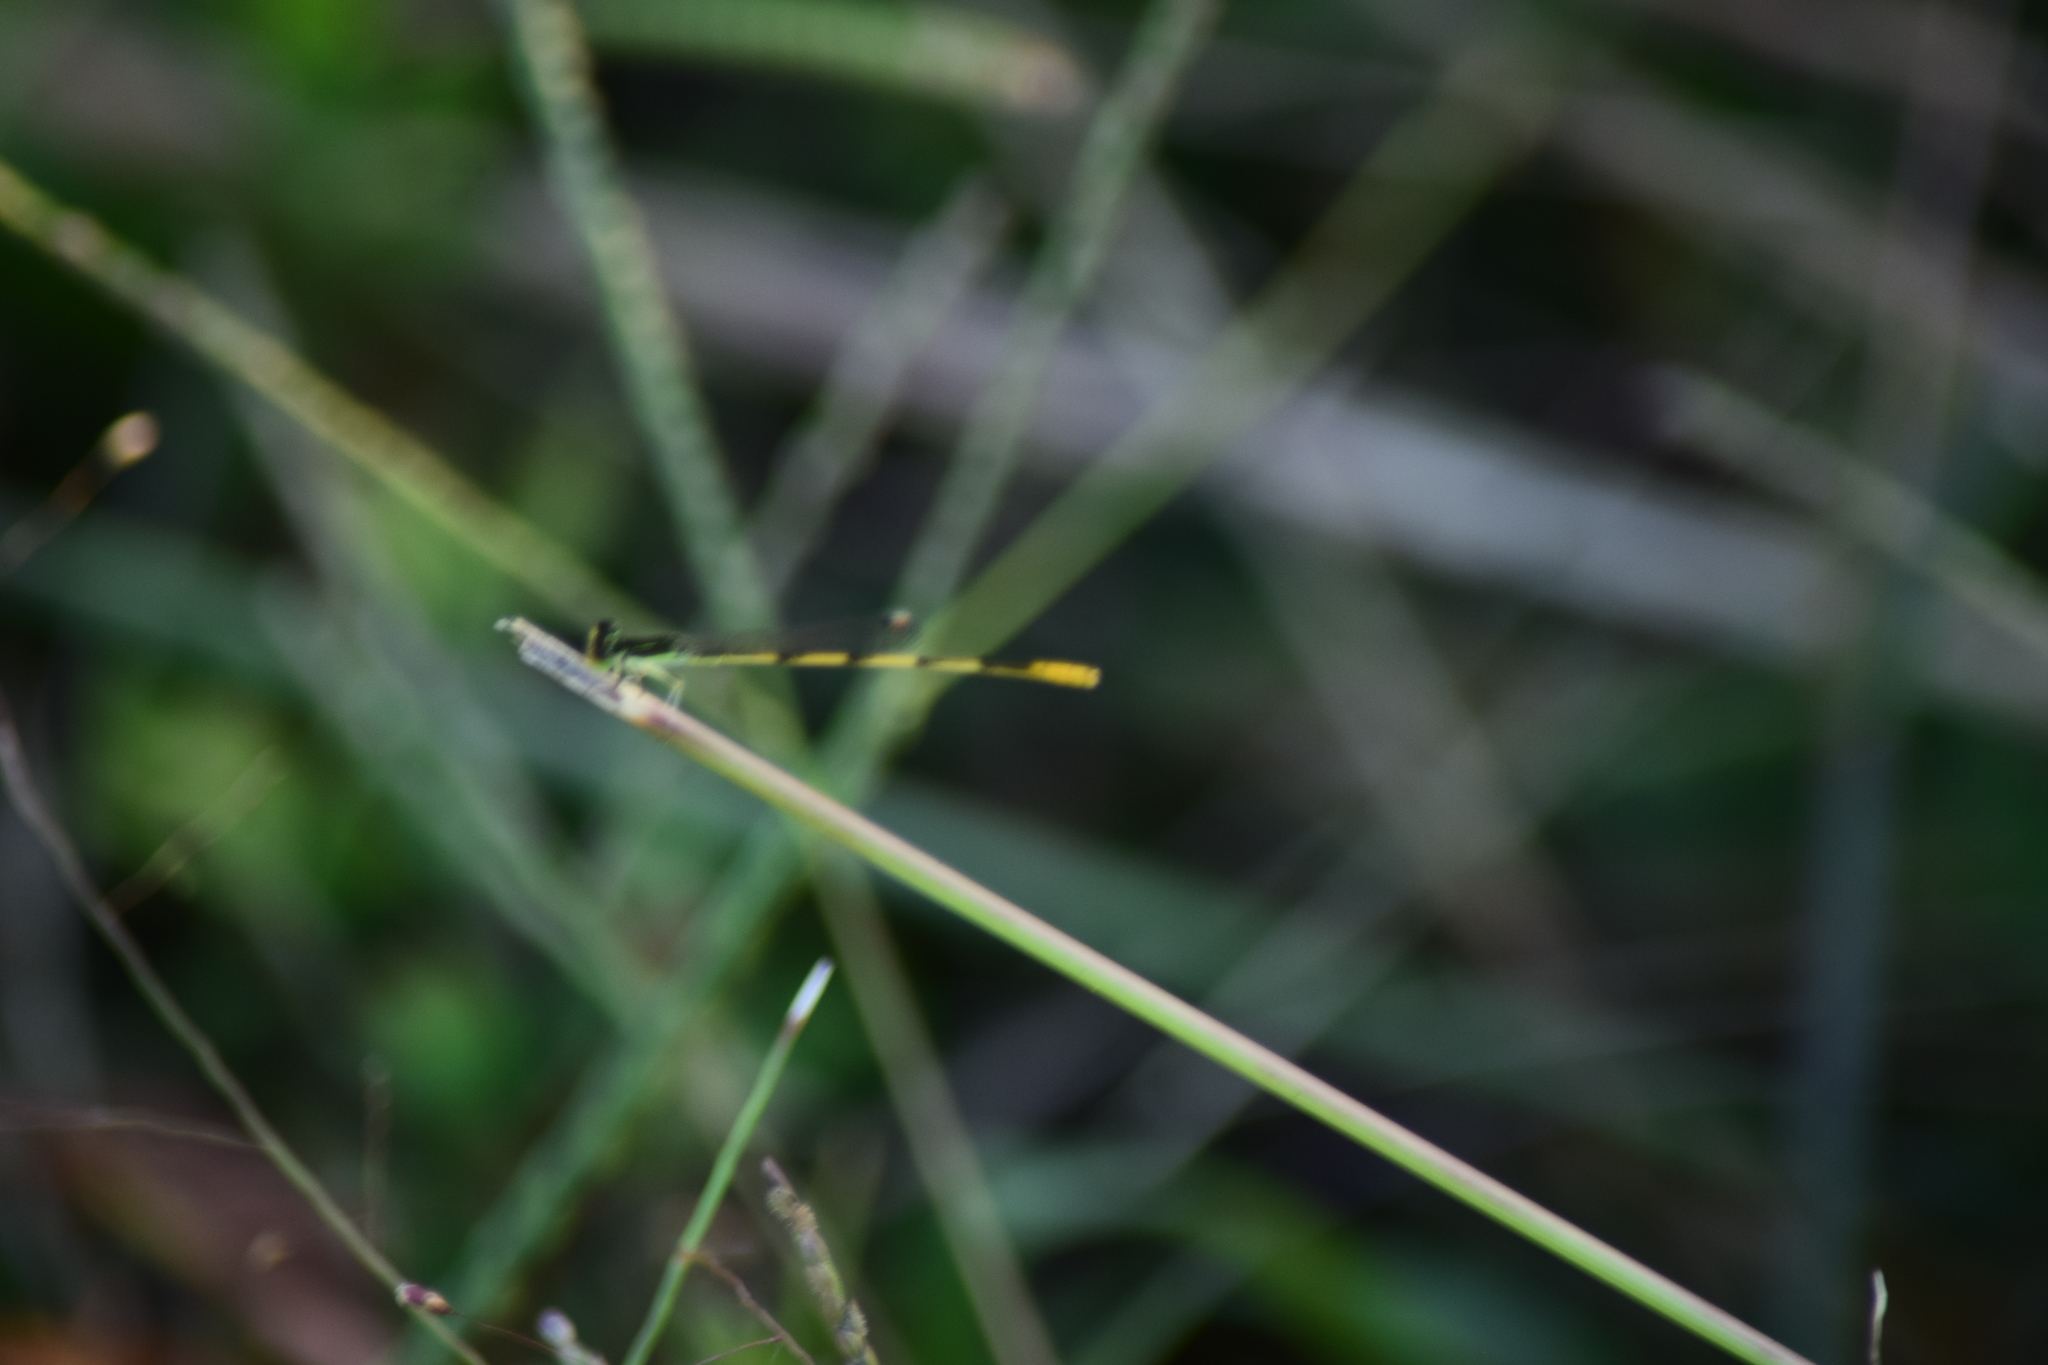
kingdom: Animalia
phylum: Arthropoda
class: Insecta
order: Odonata
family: Coenagrionidae
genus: Ischnura
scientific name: Ischnura hastata
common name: Citrine forktail
